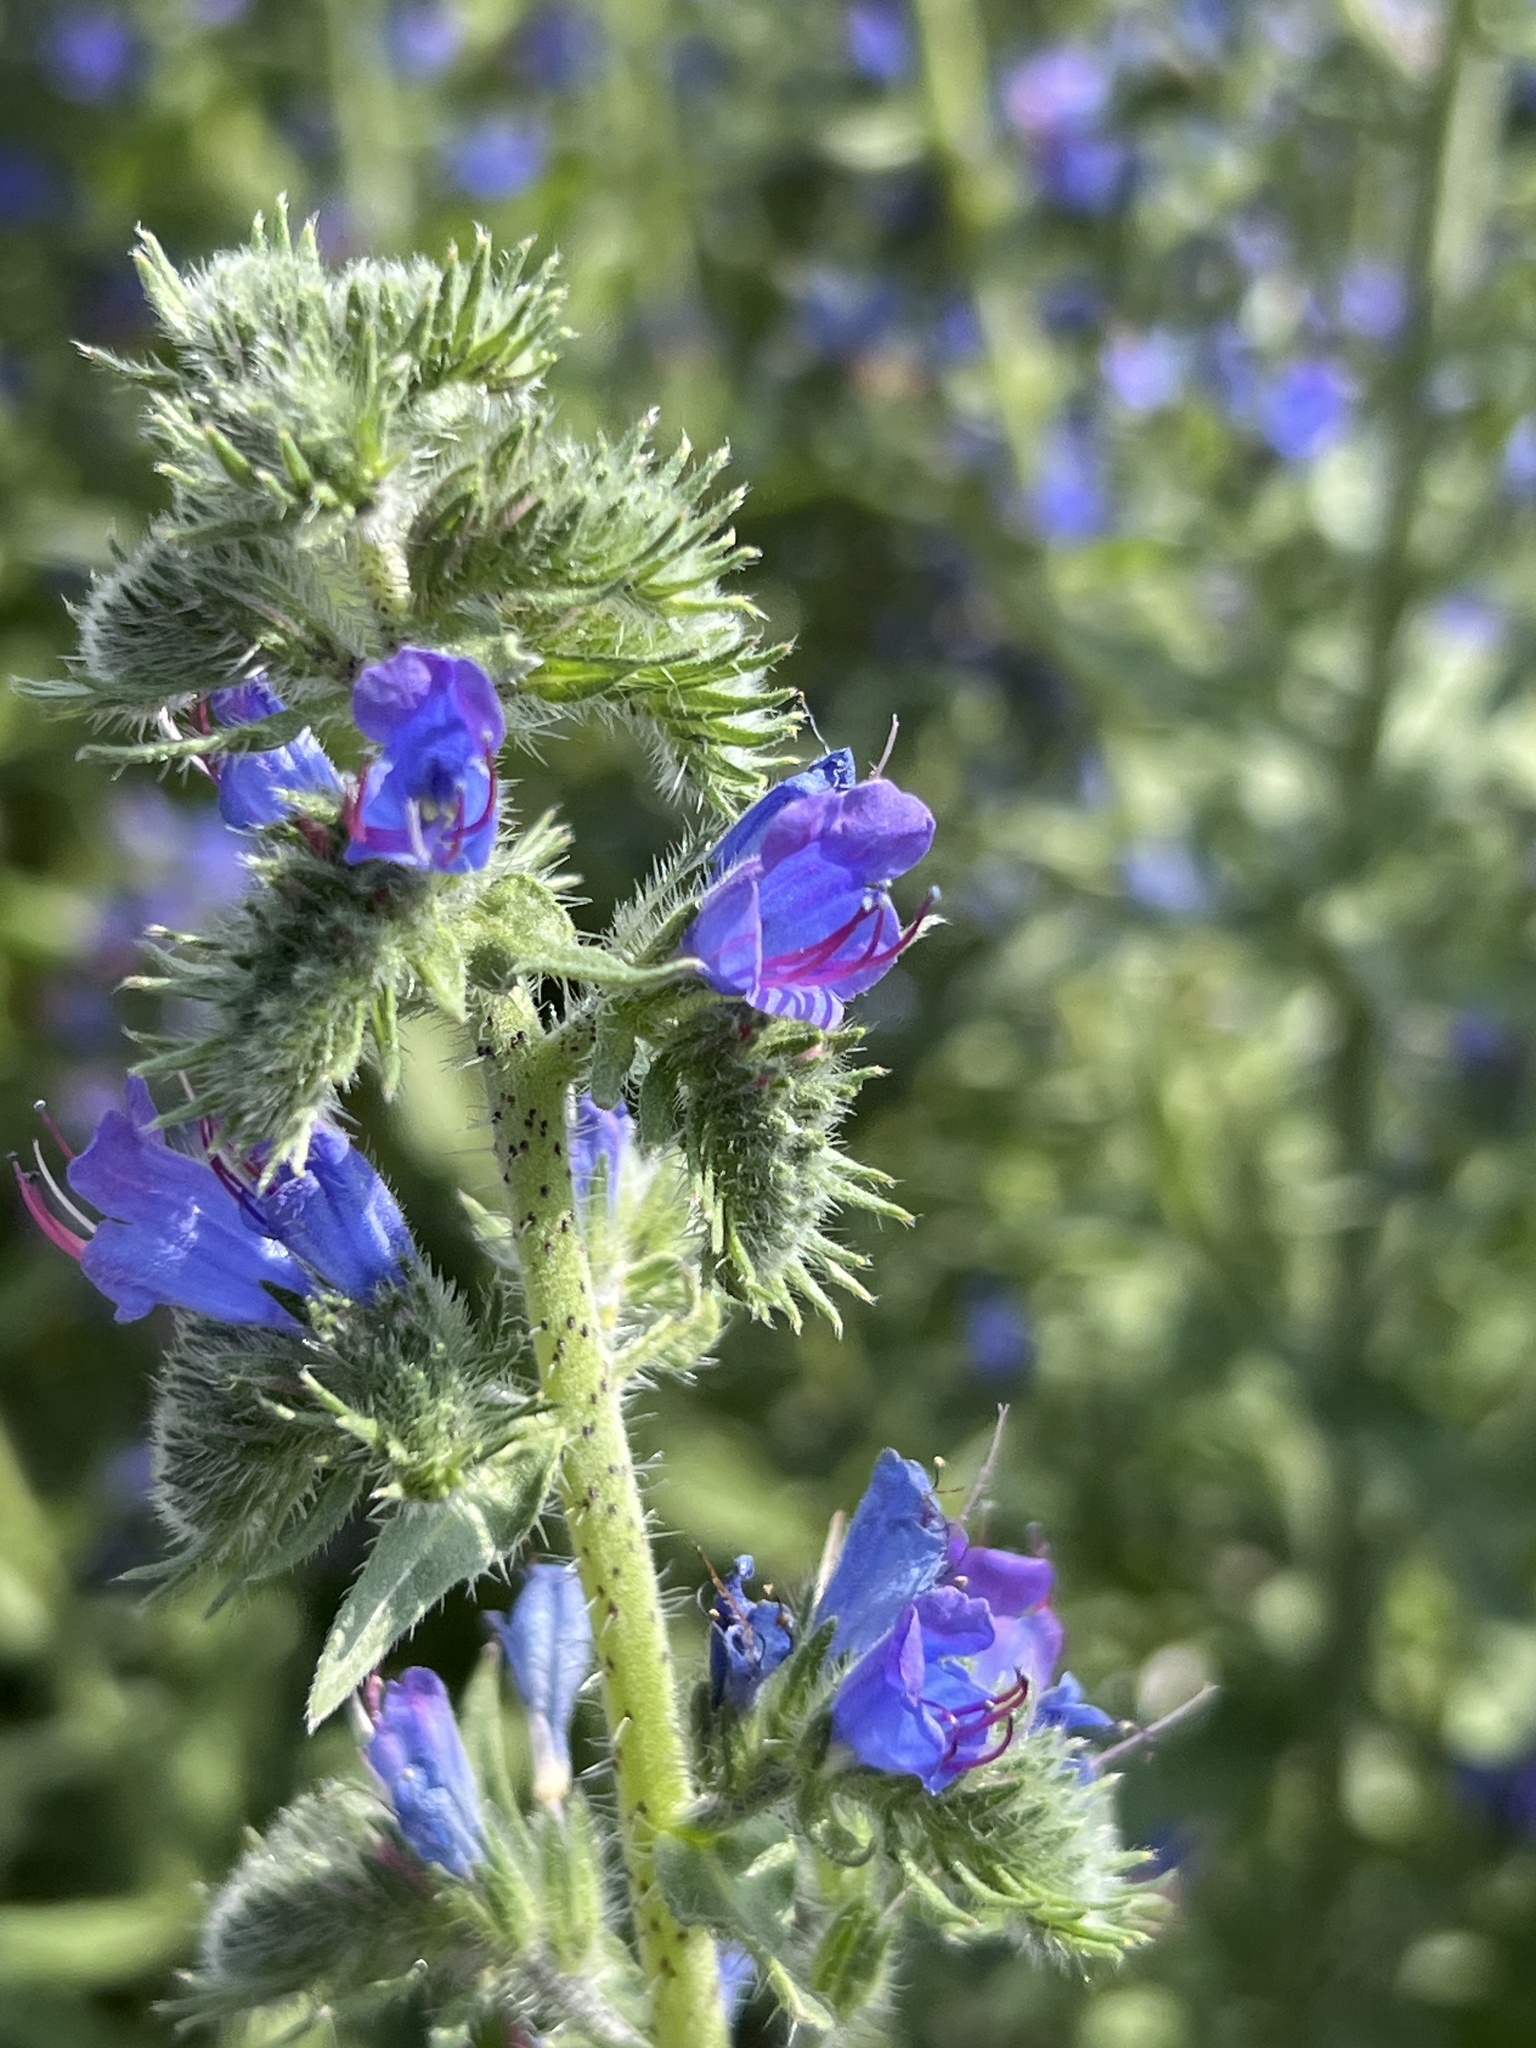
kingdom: Plantae
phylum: Tracheophyta
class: Magnoliopsida
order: Boraginales
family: Boraginaceae
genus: Echium
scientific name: Echium vulgare
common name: Common viper's bugloss
